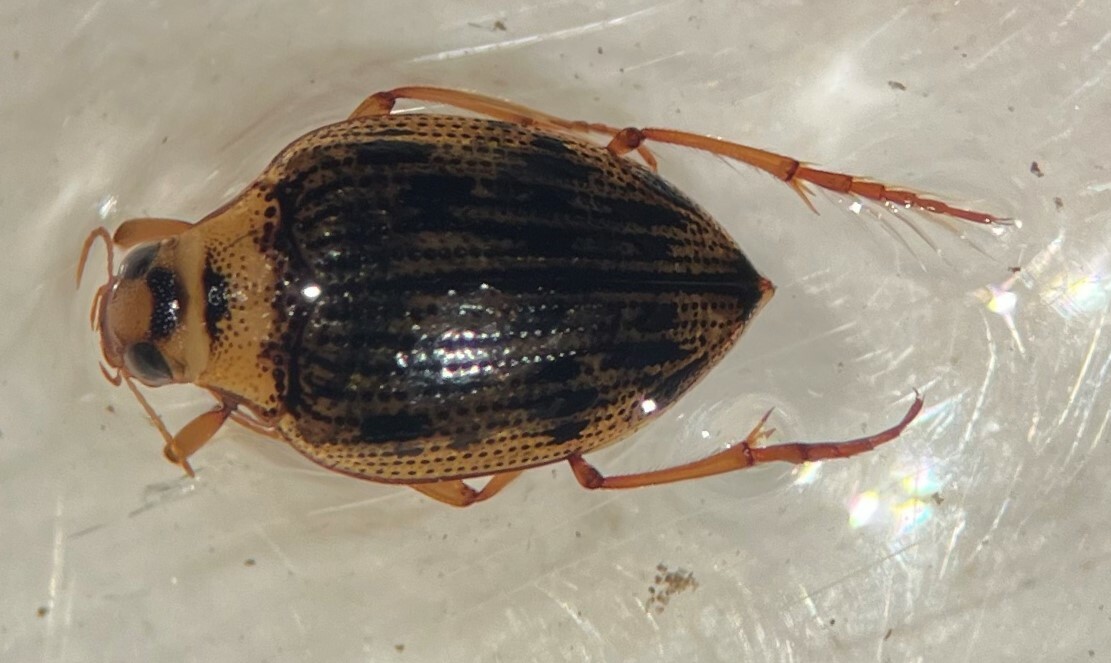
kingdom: Animalia
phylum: Arthropoda
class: Insecta
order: Coleoptera
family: Haliplidae
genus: Haliplus
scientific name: Haliplus cribrarius
